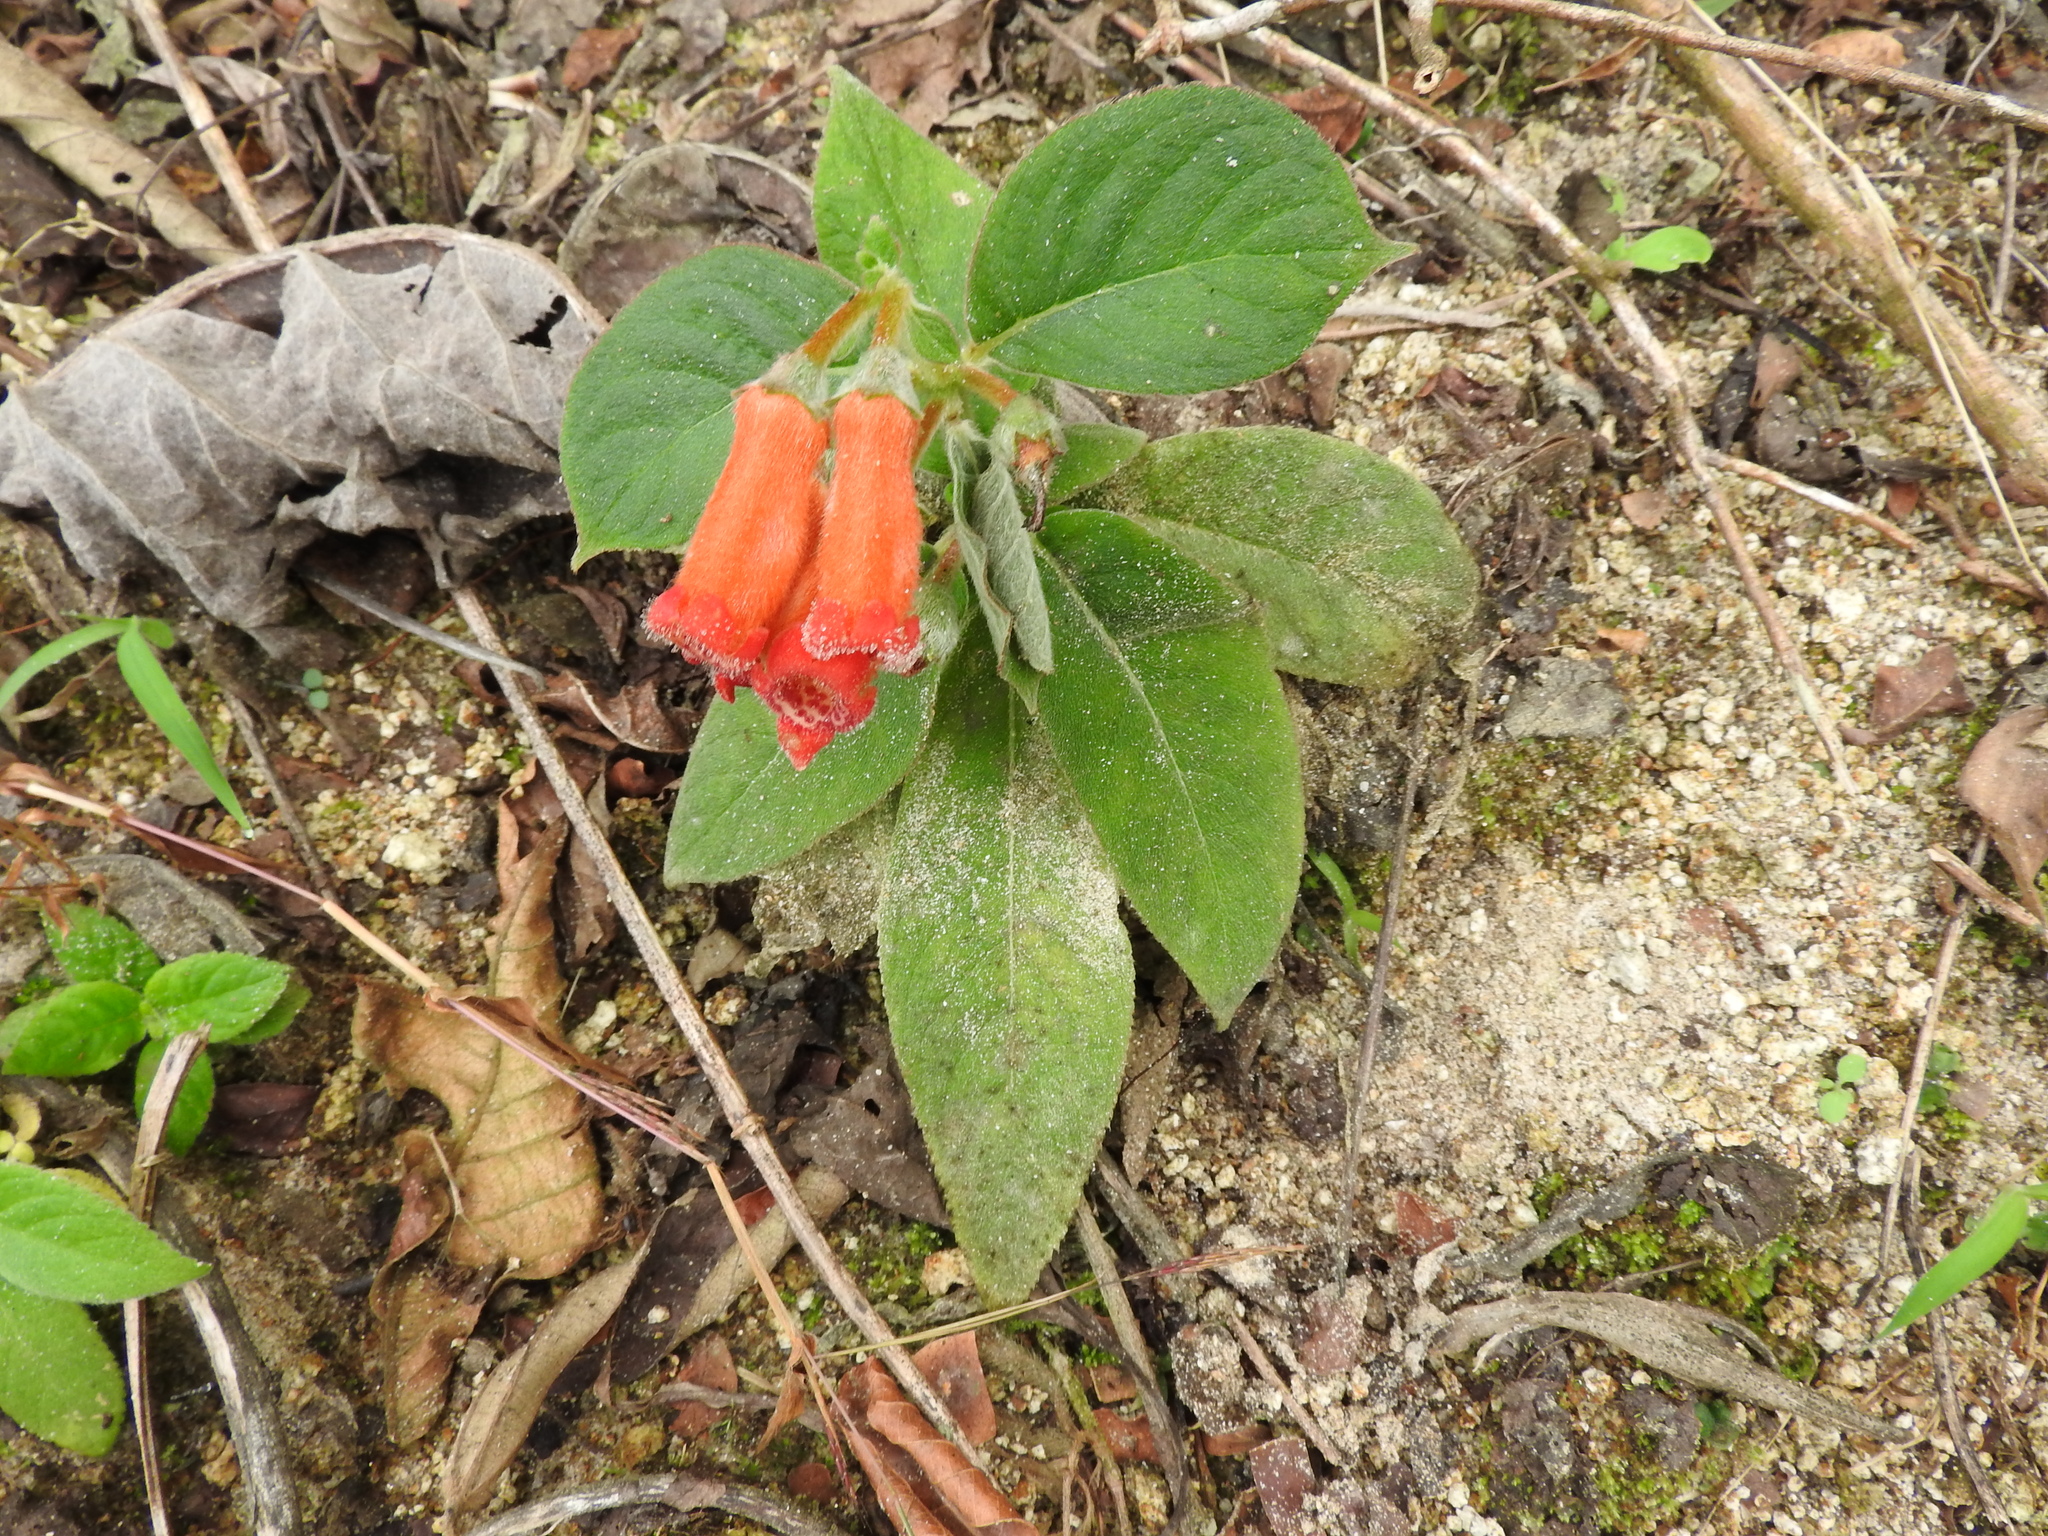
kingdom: Plantae
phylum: Tracheophyta
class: Magnoliopsida
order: Lamiales
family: Gesneriaceae
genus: Kohleria
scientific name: Kohleria spicata
